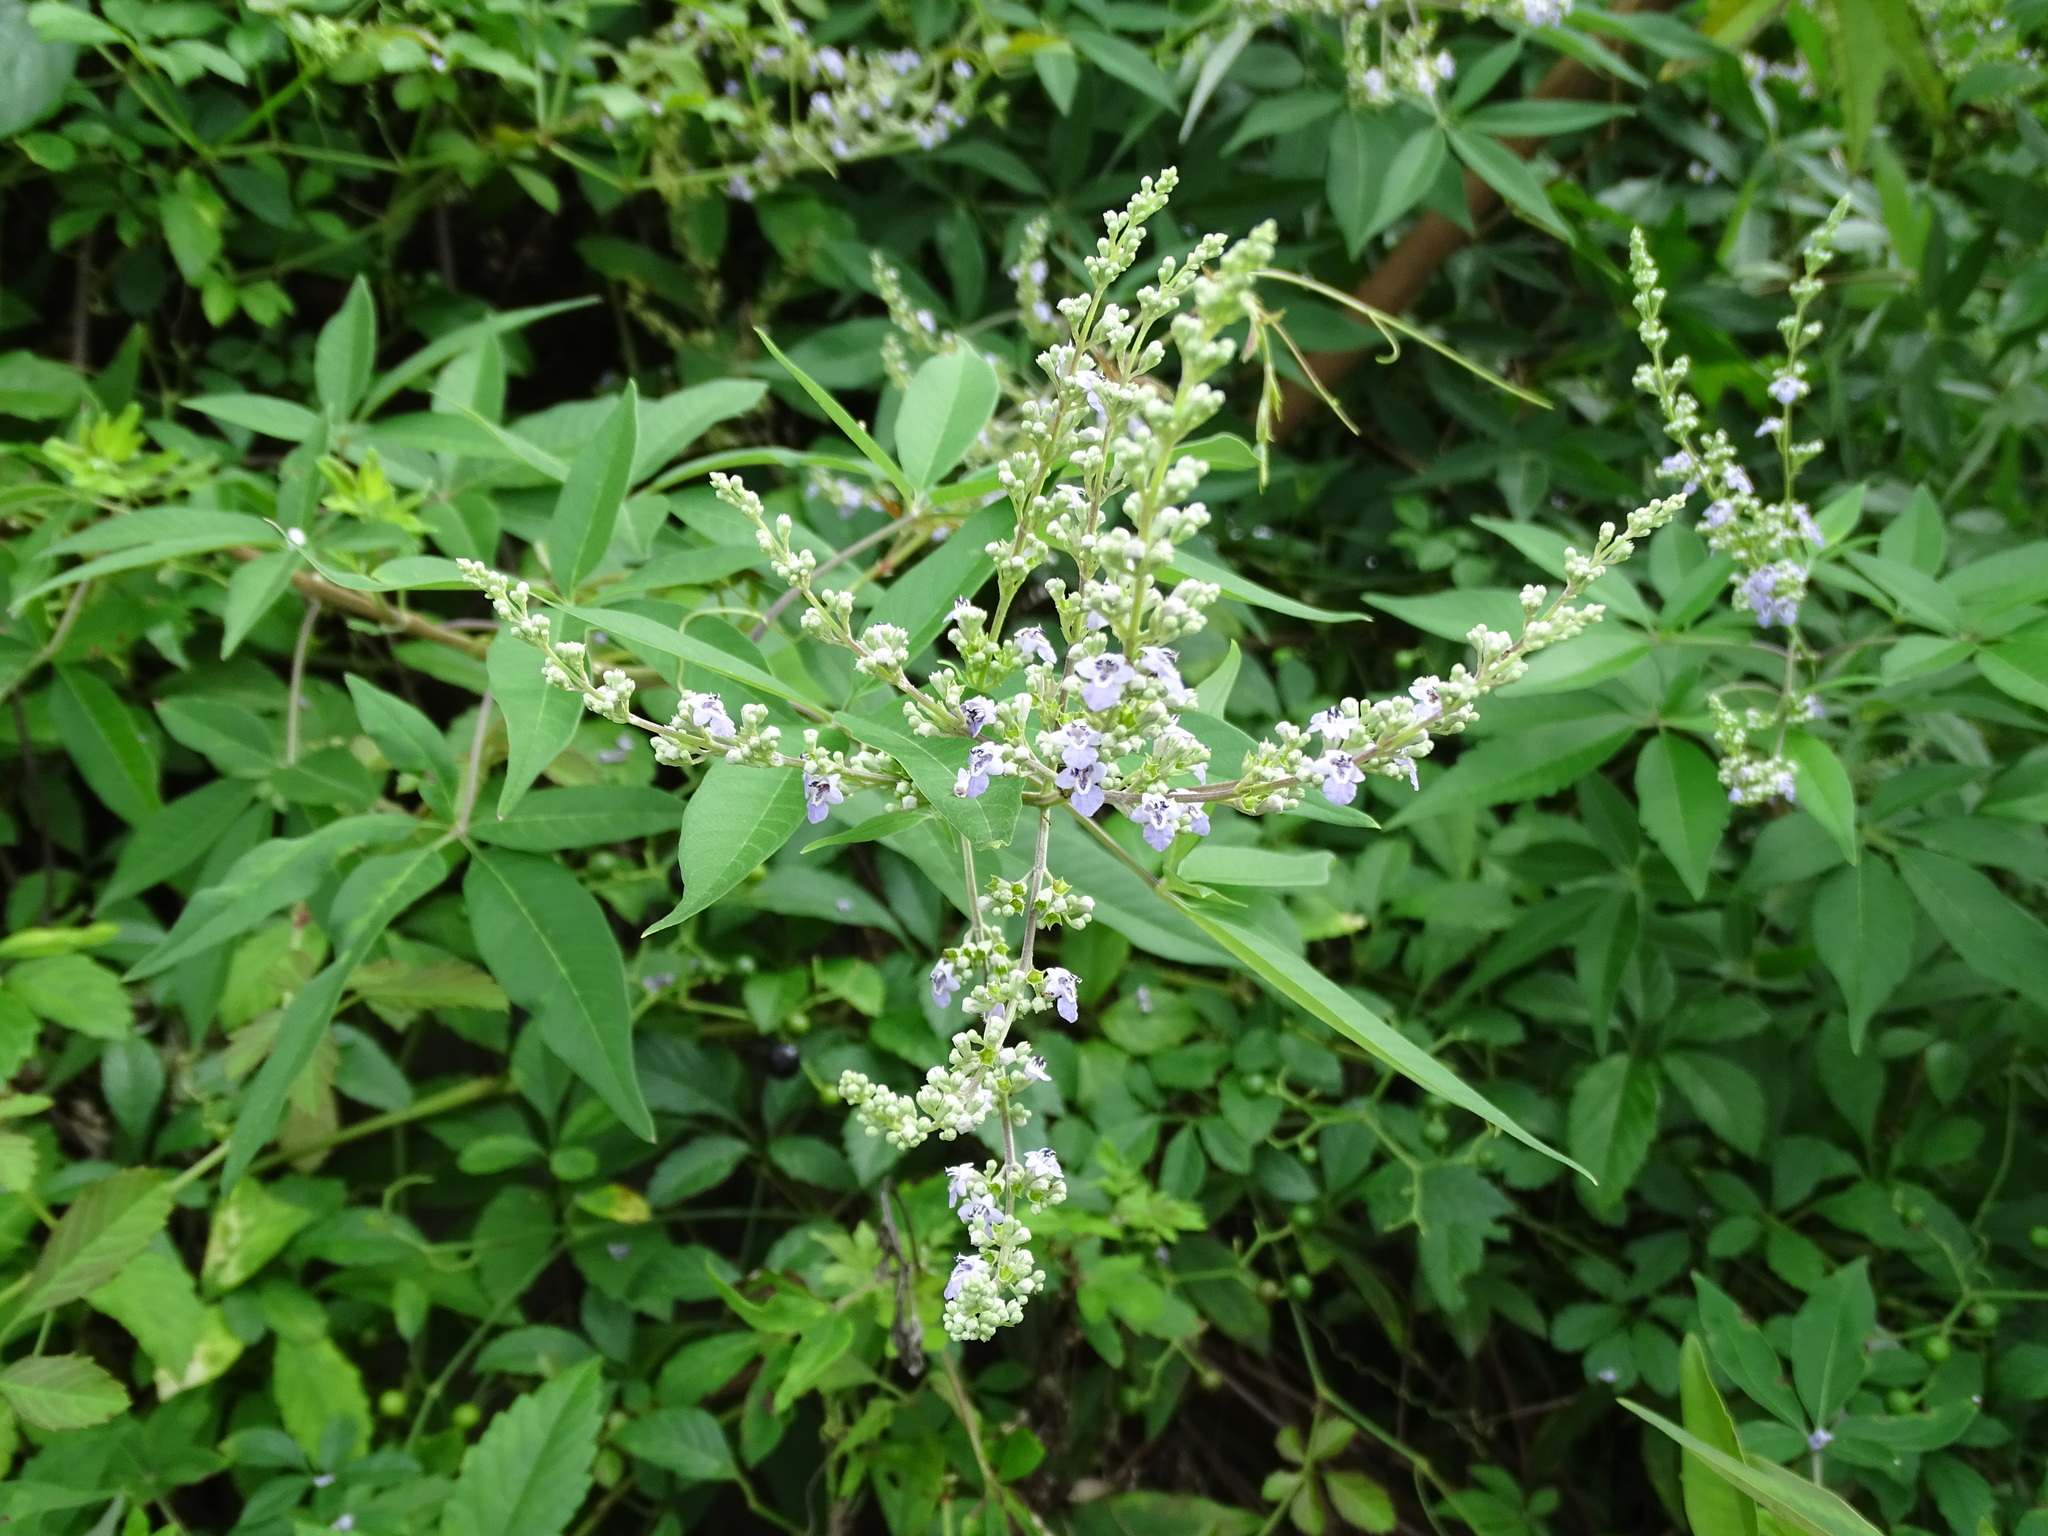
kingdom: Plantae
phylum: Tracheophyta
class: Magnoliopsida
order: Lamiales
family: Lamiaceae
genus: Vitex
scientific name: Vitex negundo
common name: Chinese chastetree
